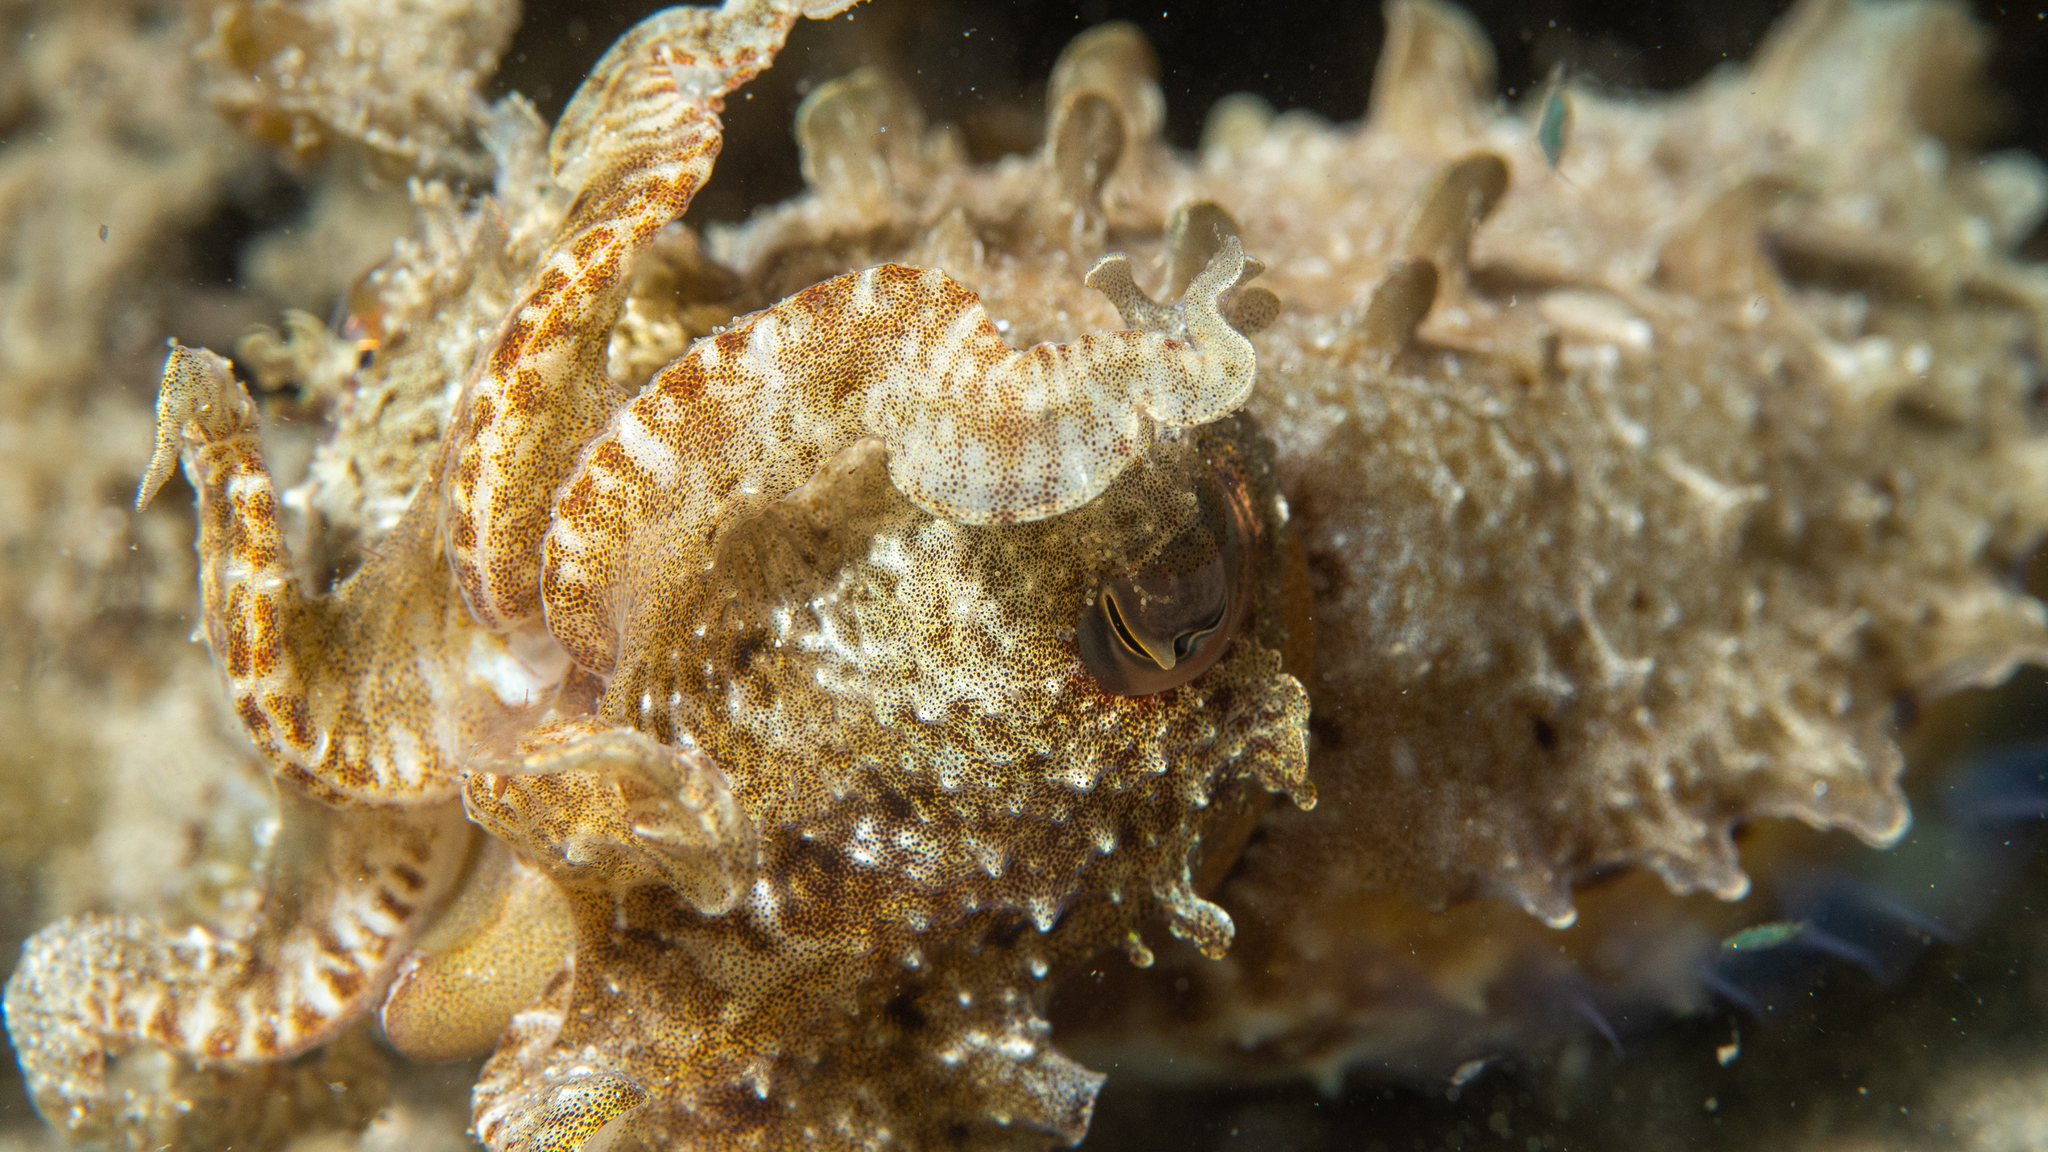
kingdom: Animalia
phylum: Mollusca
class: Cephalopoda
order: Sepiida
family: Sepiidae
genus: Ascarosepion
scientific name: Ascarosepion apama
